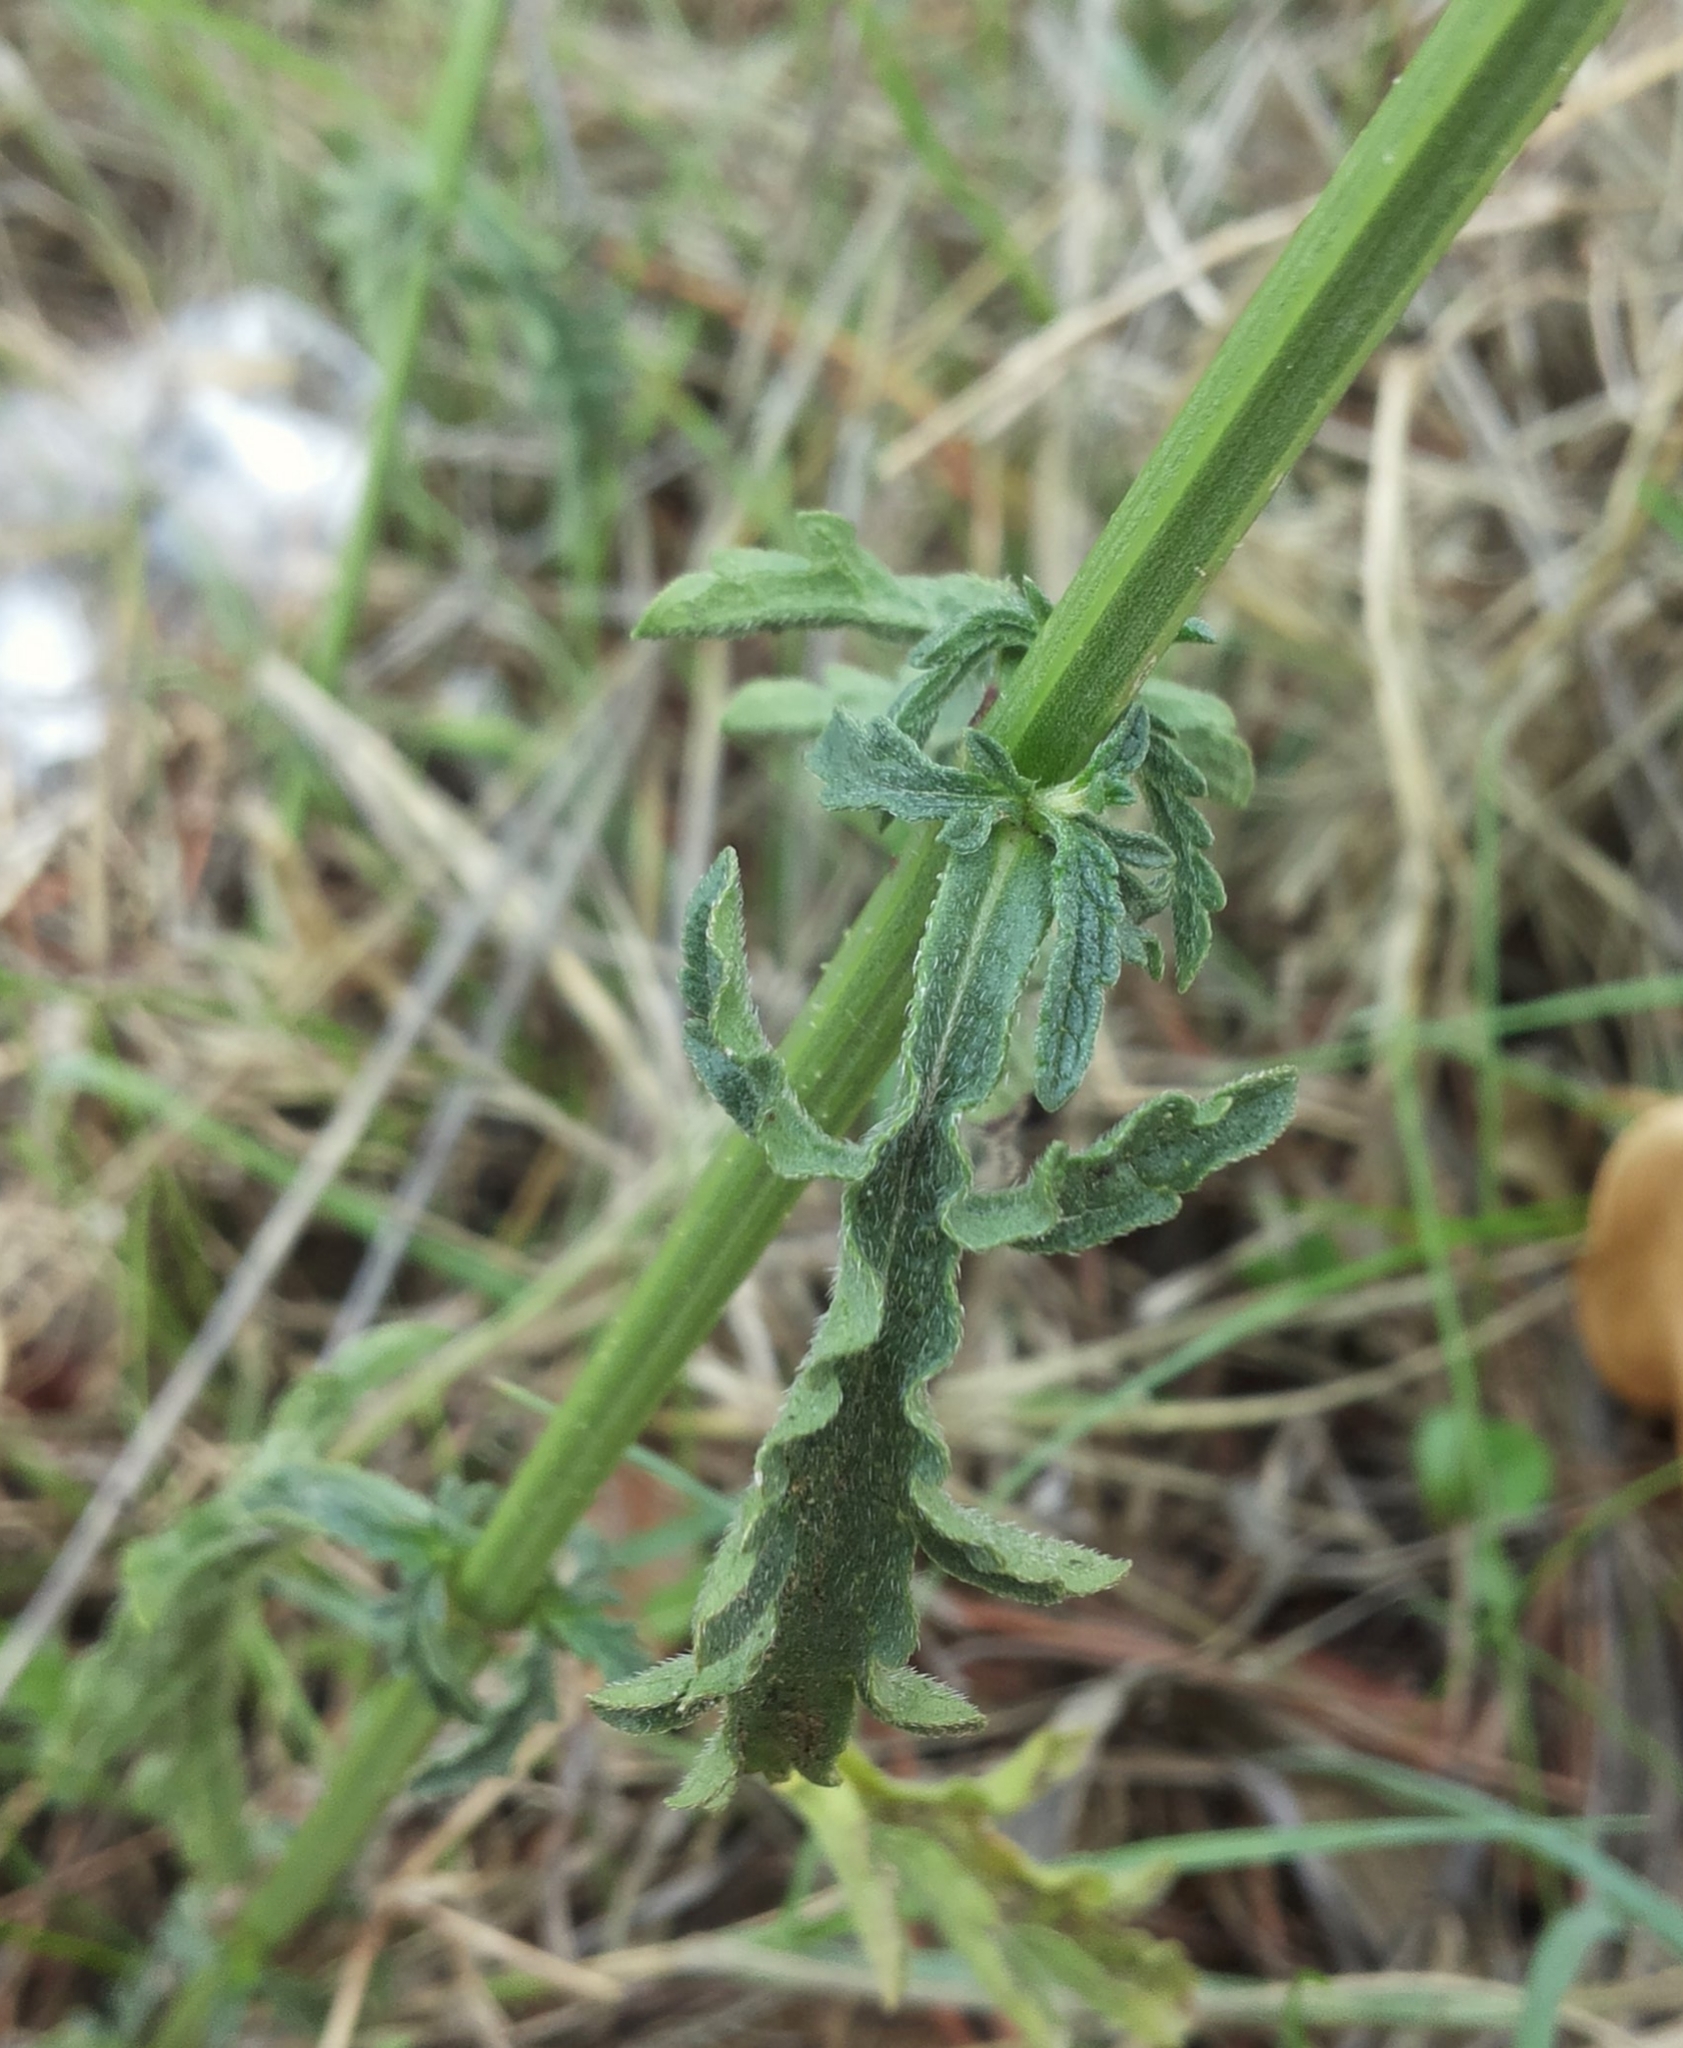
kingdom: Plantae
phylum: Tracheophyta
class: Magnoliopsida
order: Lamiales
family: Verbenaceae
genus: Verbena
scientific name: Verbena officinalis
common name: Vervain
